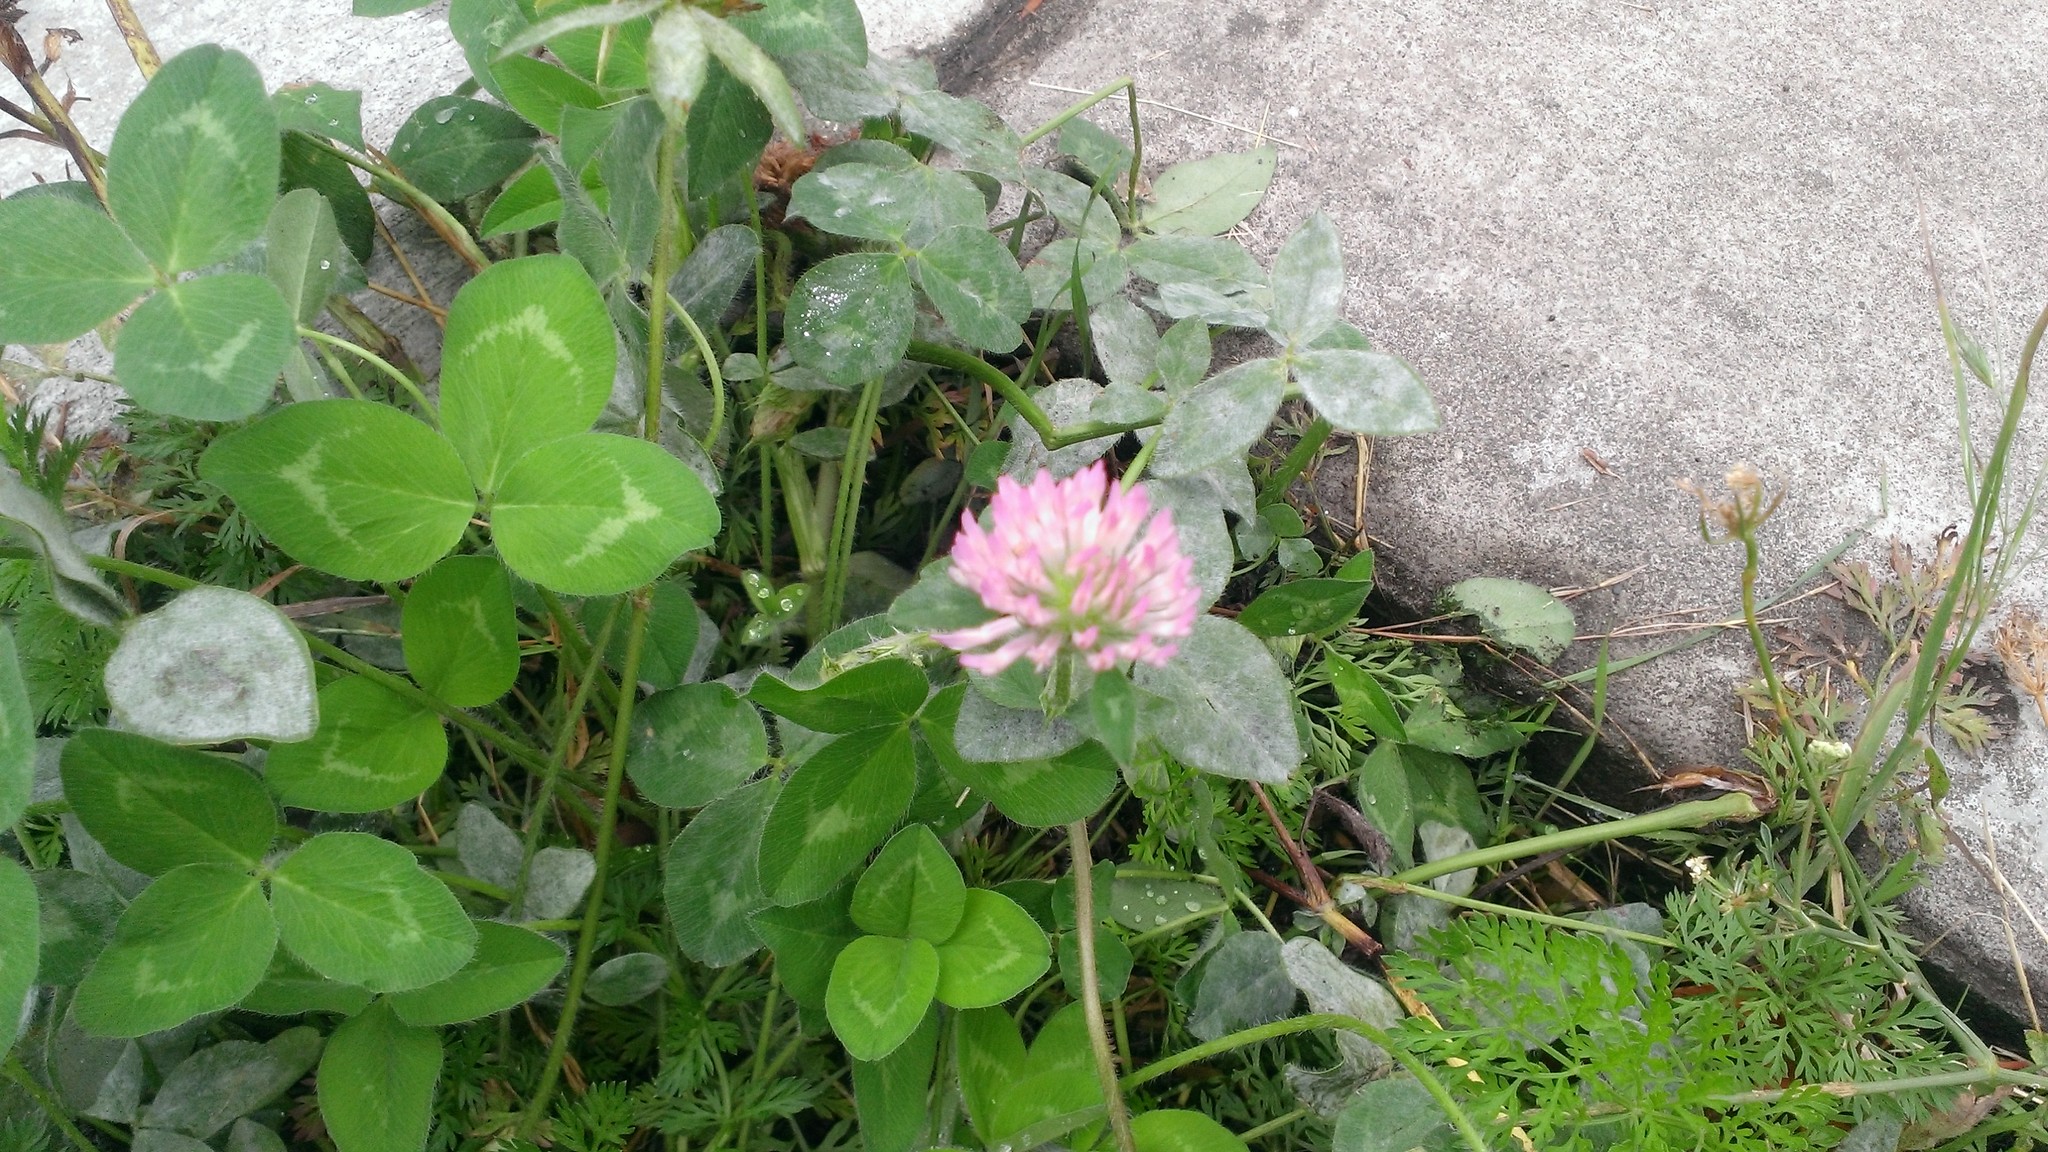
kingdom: Plantae
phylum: Tracheophyta
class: Magnoliopsida
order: Fabales
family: Fabaceae
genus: Trifolium
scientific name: Trifolium pratense
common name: Red clover
